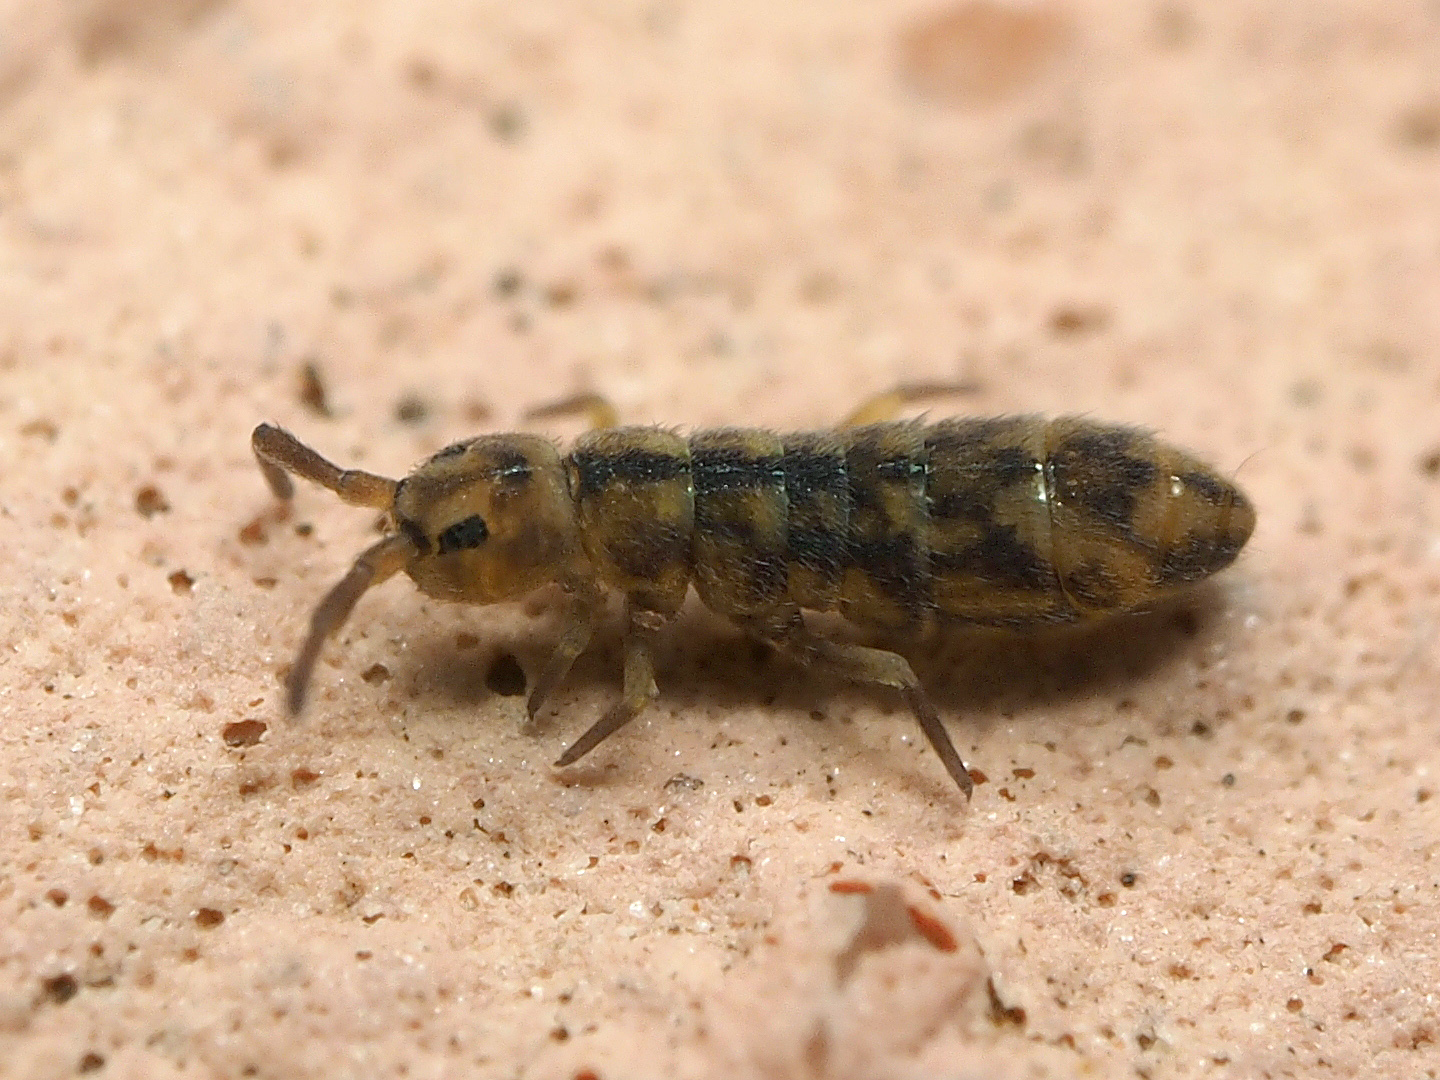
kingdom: Animalia
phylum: Arthropoda
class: Collembola
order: Entomobryomorpha
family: Isotomidae
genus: Isotomurus
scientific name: Isotomurus maculatus
